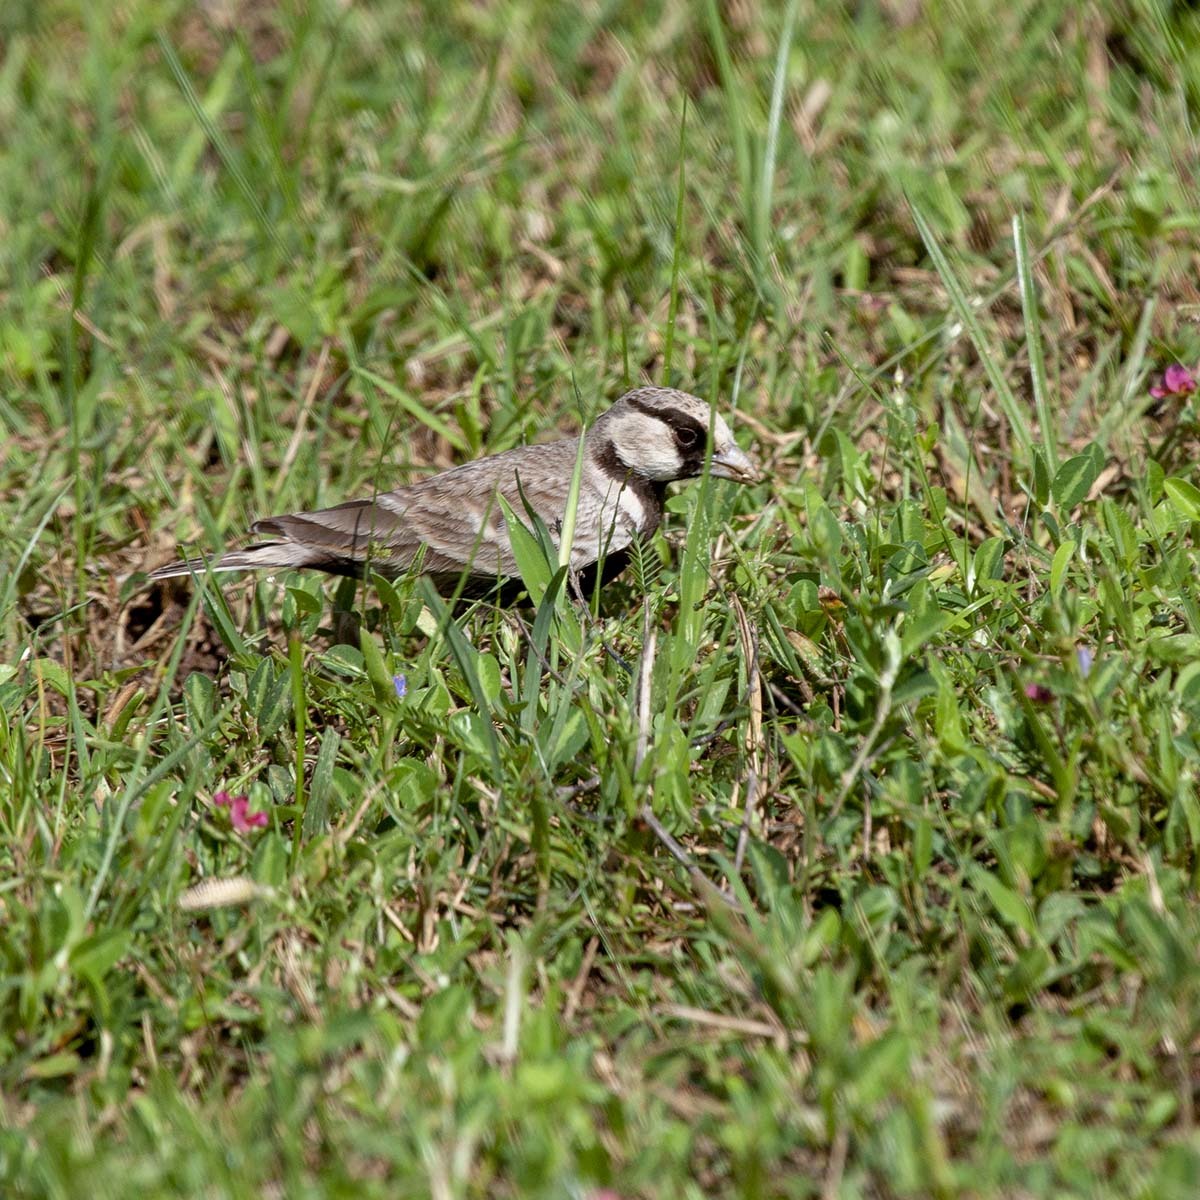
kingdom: Animalia
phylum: Chordata
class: Aves
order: Passeriformes
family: Alaudidae
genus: Eremopterix
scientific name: Eremopterix griseus
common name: Ashy-crowned sparrow-lark
